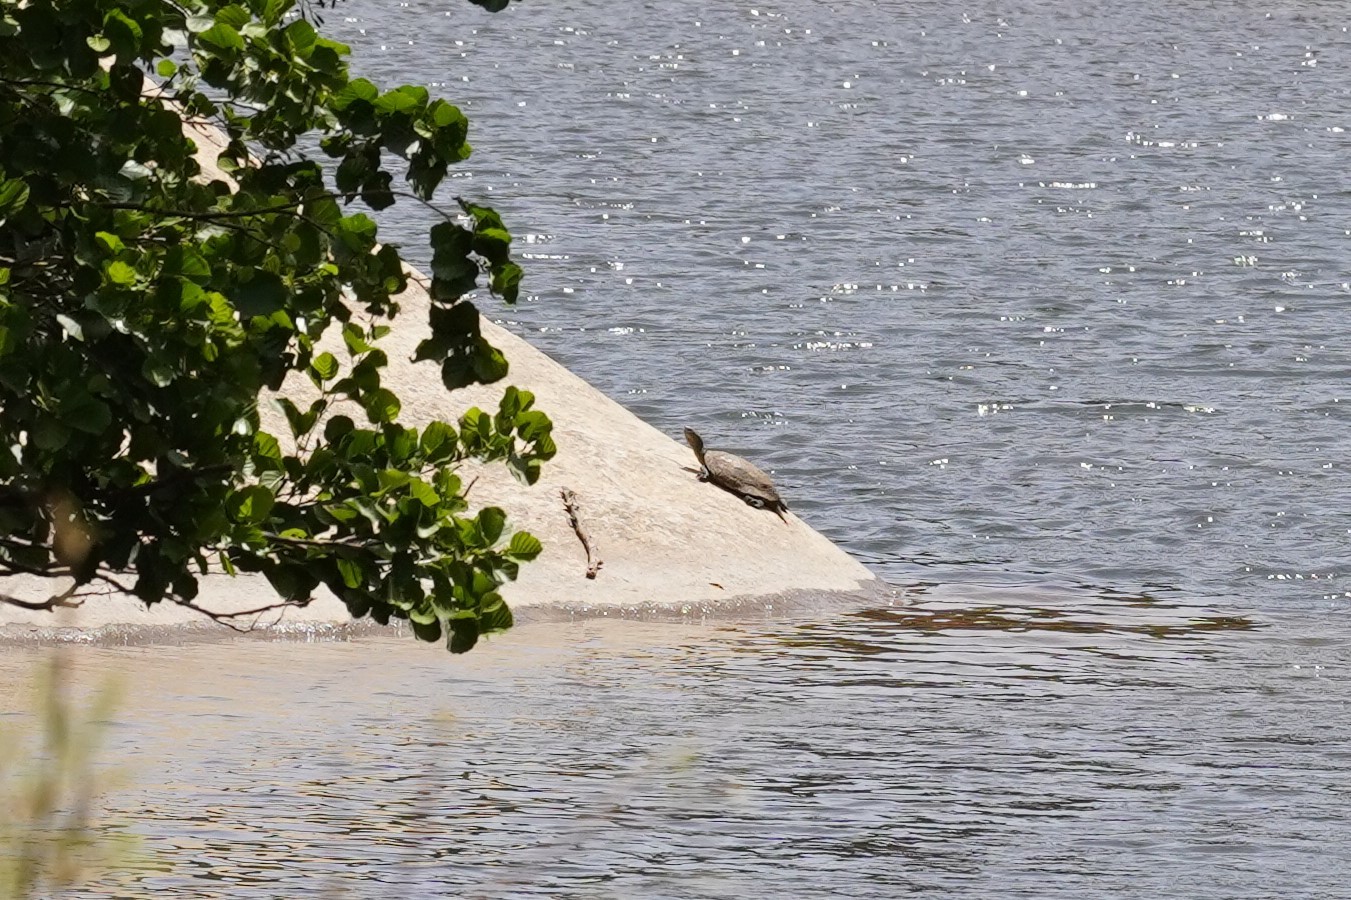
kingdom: Animalia
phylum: Chordata
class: Testudines
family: Geoemydidae
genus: Mauremys
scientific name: Mauremys leprosa
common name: Mediterranean pond turtle
